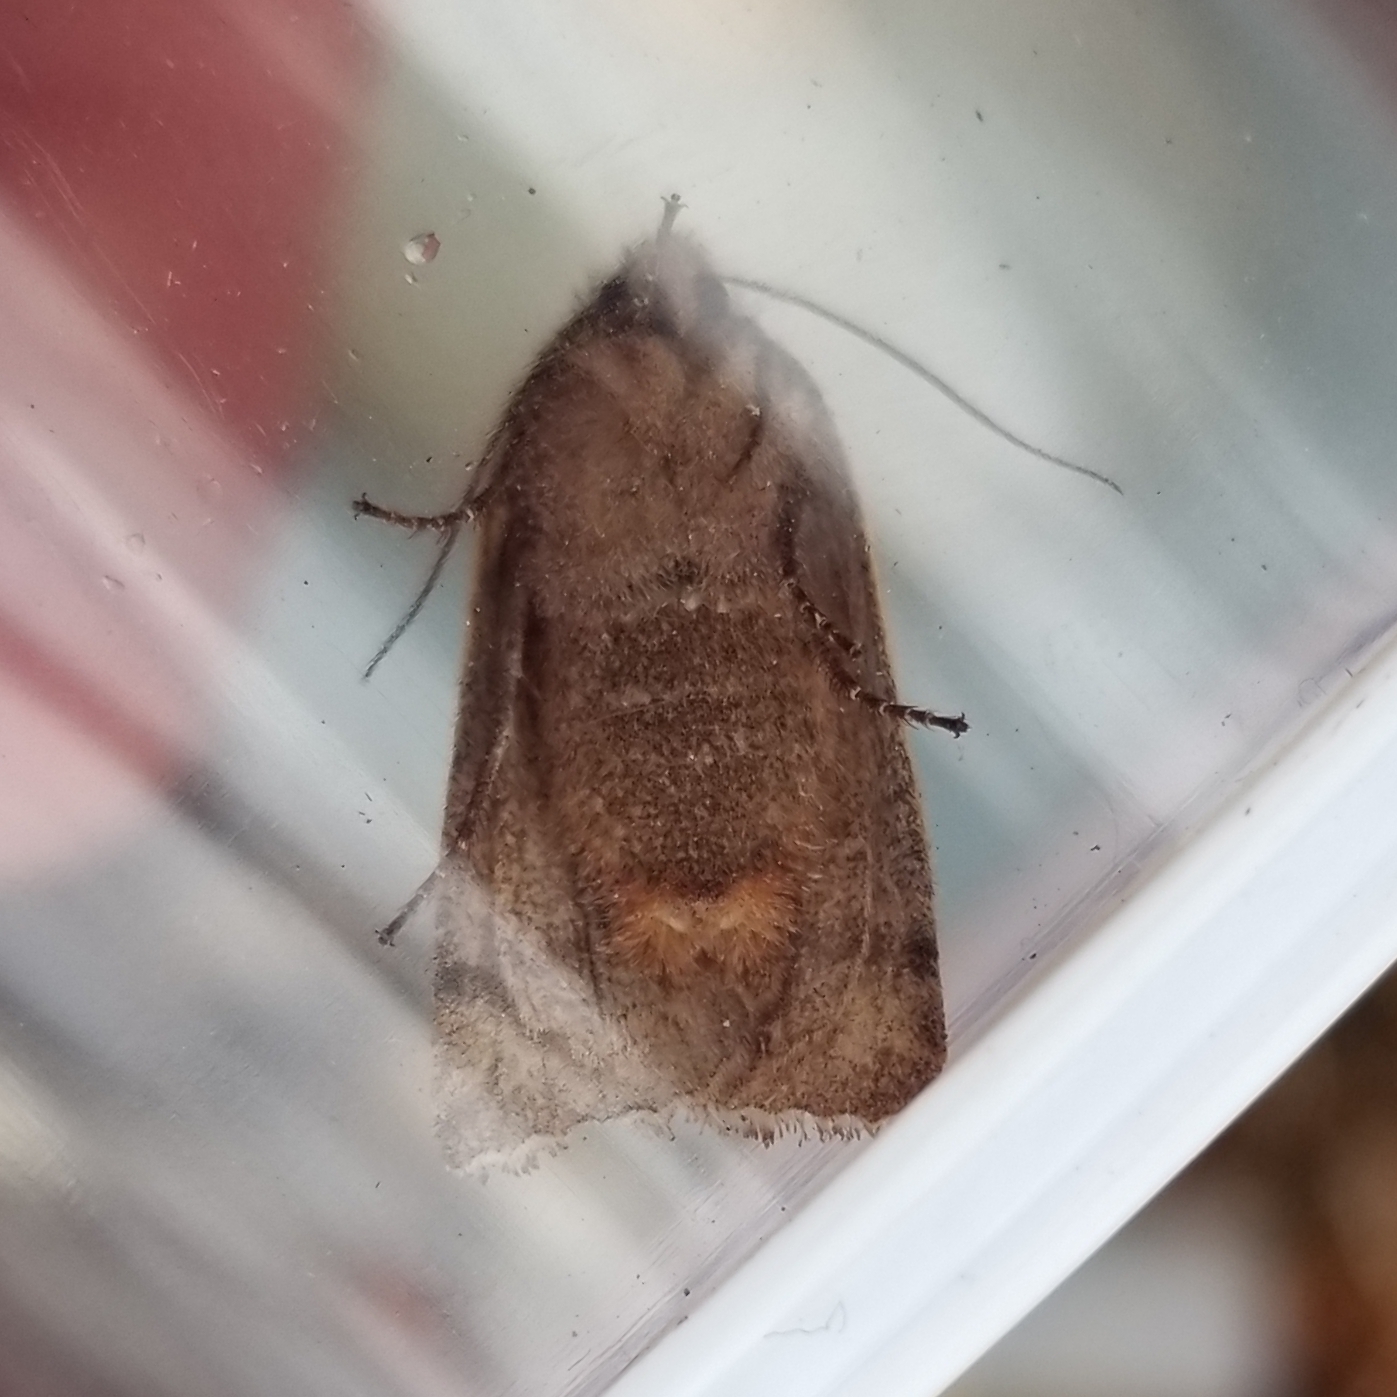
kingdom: Animalia
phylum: Arthropoda
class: Insecta
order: Lepidoptera
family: Noctuidae
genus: Eupsilia
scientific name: Eupsilia devia
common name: Lost sallow
